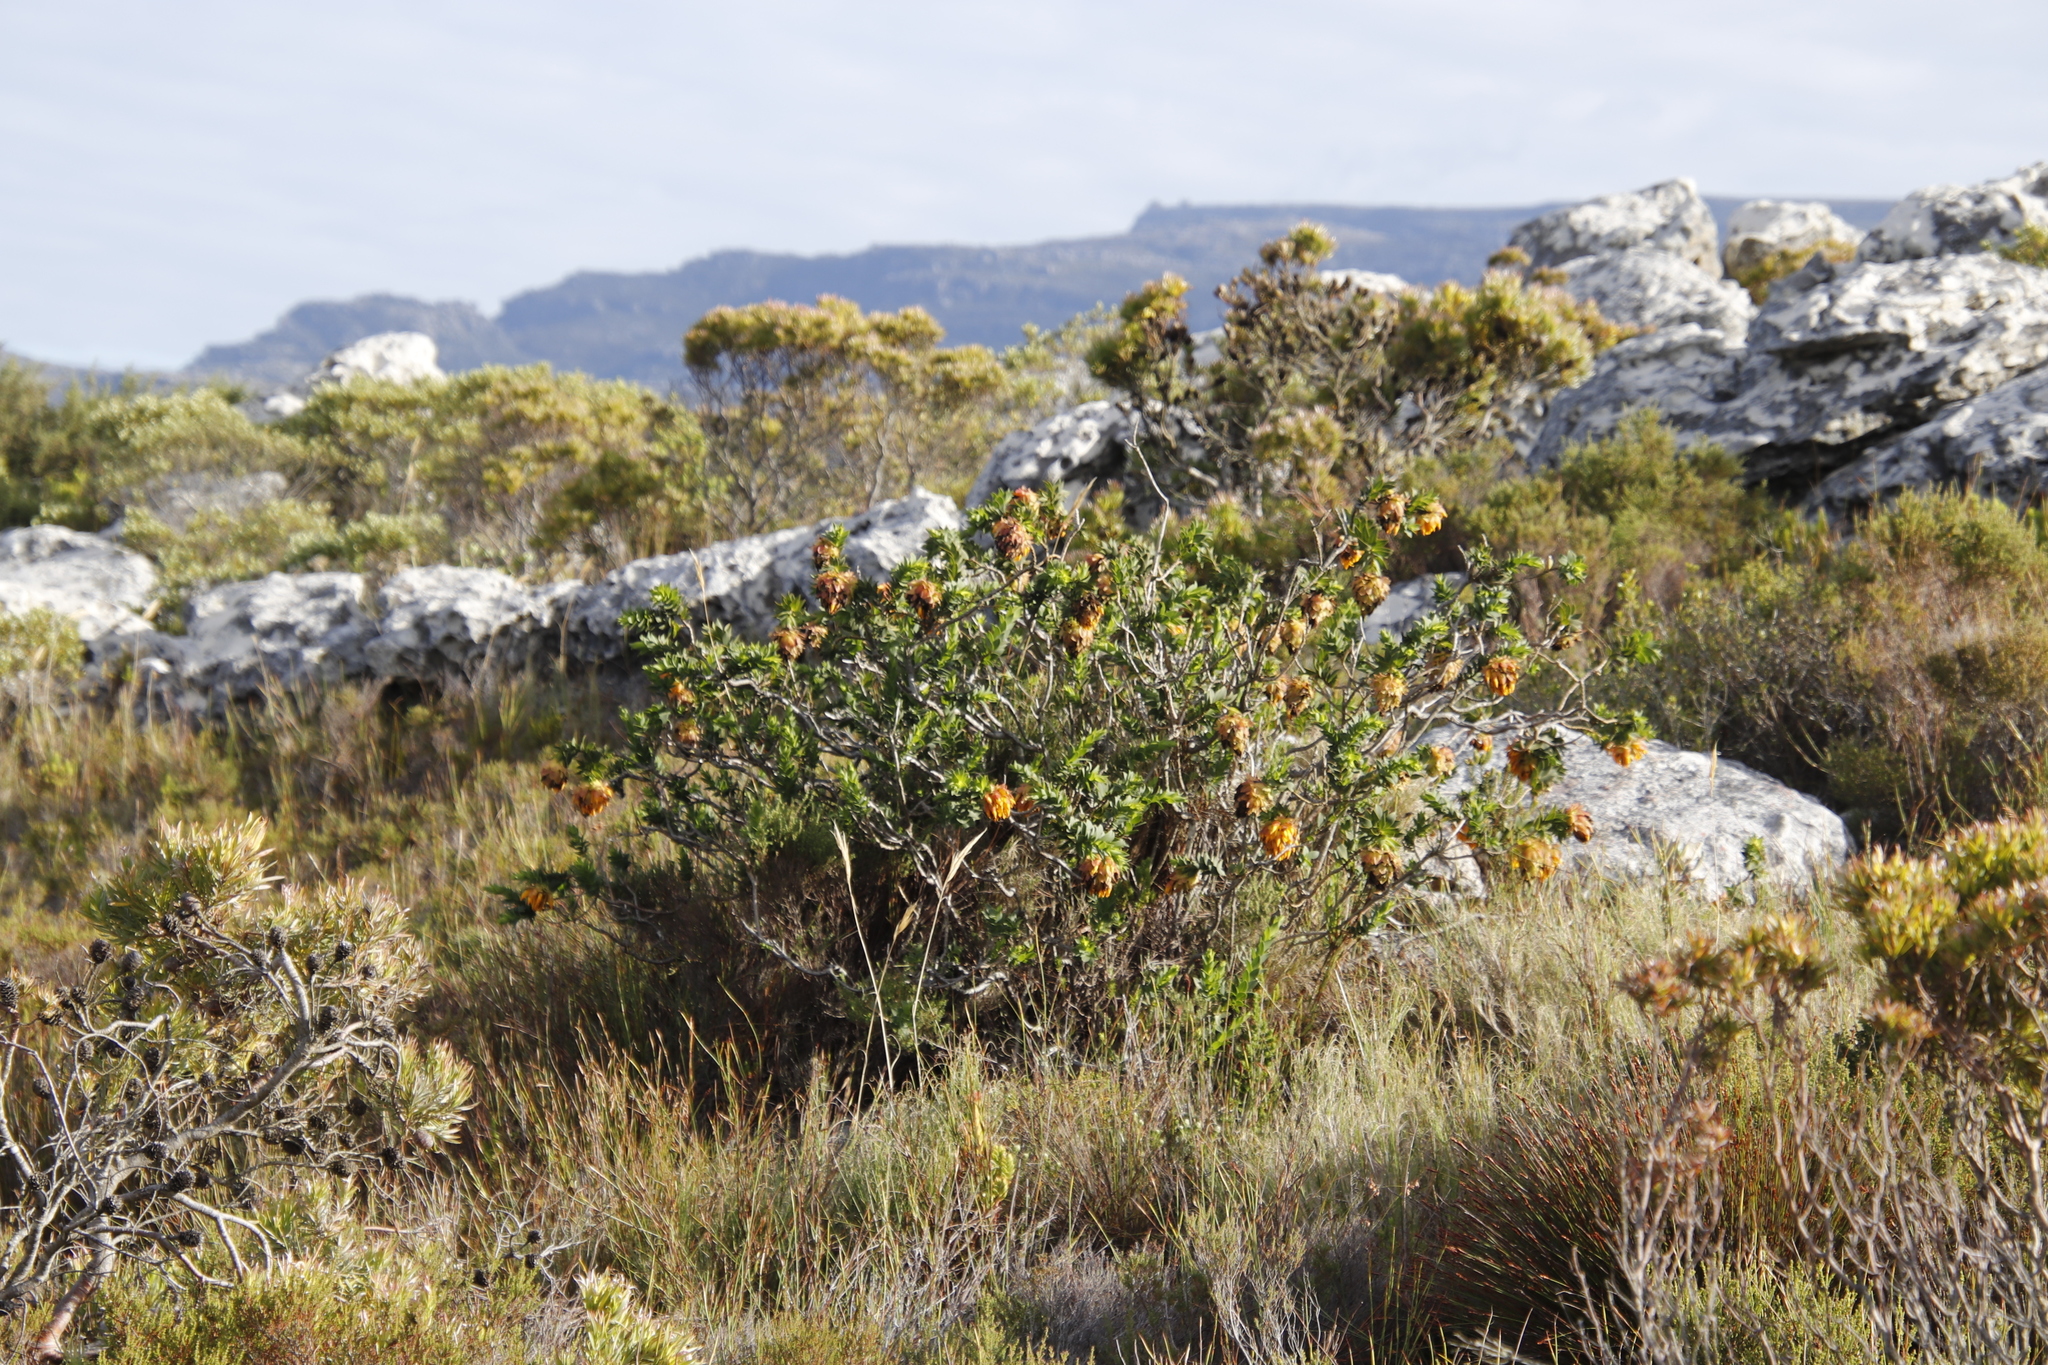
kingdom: Plantae
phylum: Tracheophyta
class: Magnoliopsida
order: Fabales
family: Fabaceae
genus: Liparia
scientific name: Liparia splendens
